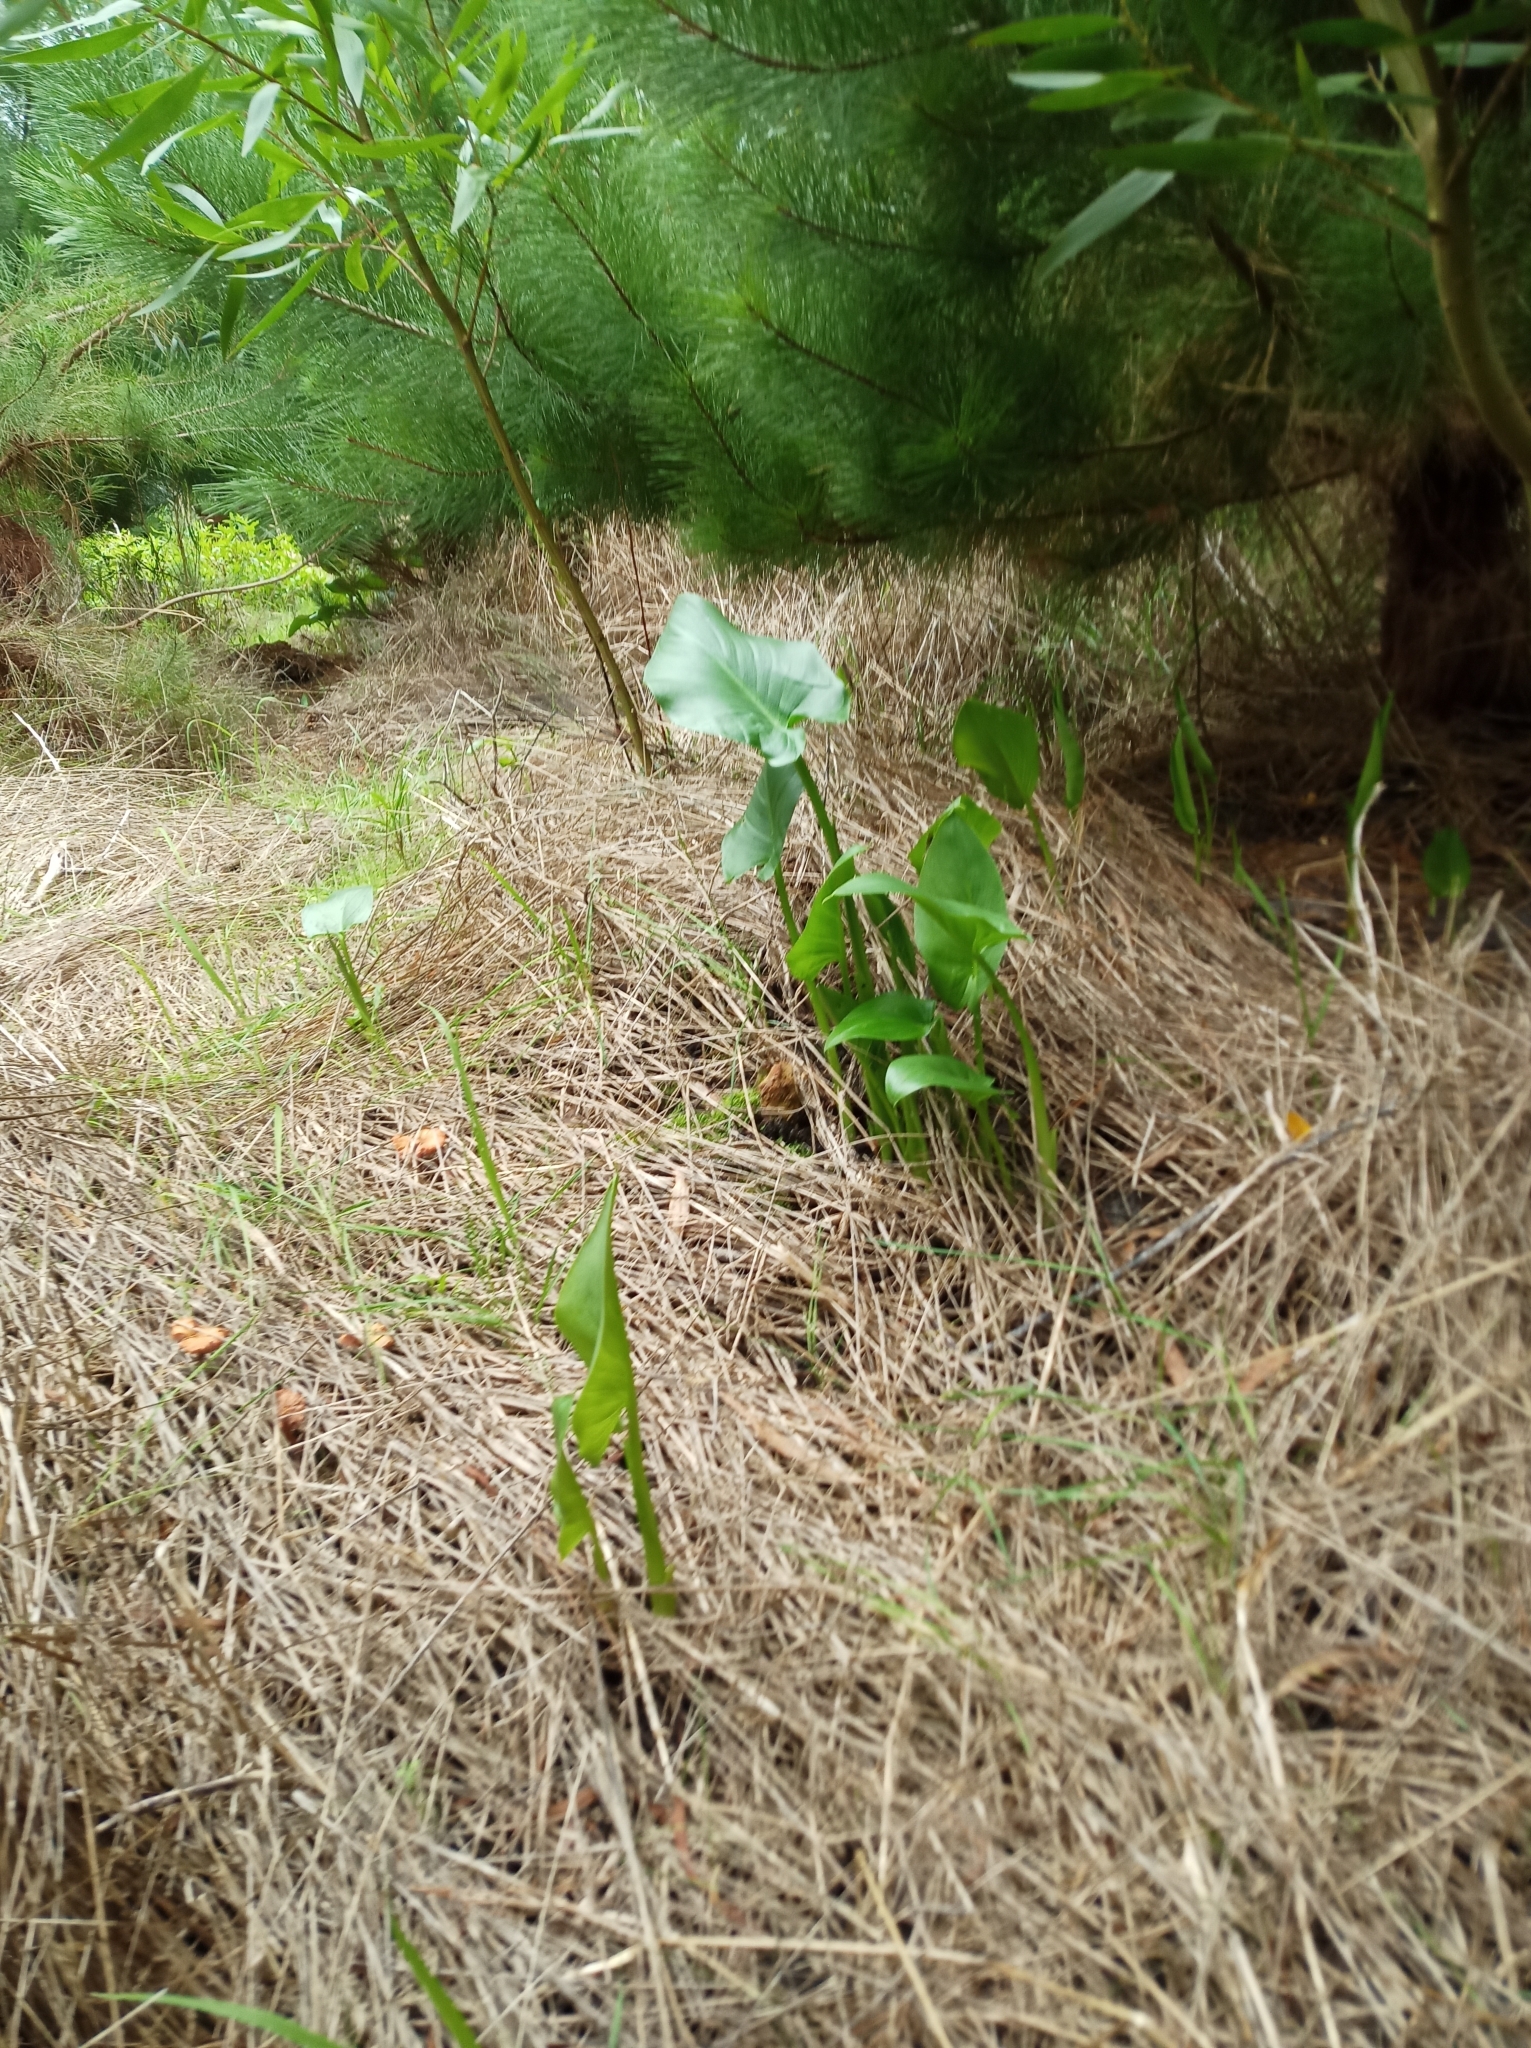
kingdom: Plantae
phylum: Tracheophyta
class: Liliopsida
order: Alismatales
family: Araceae
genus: Zantedeschia
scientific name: Zantedeschia aethiopica
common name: Altar-lily
